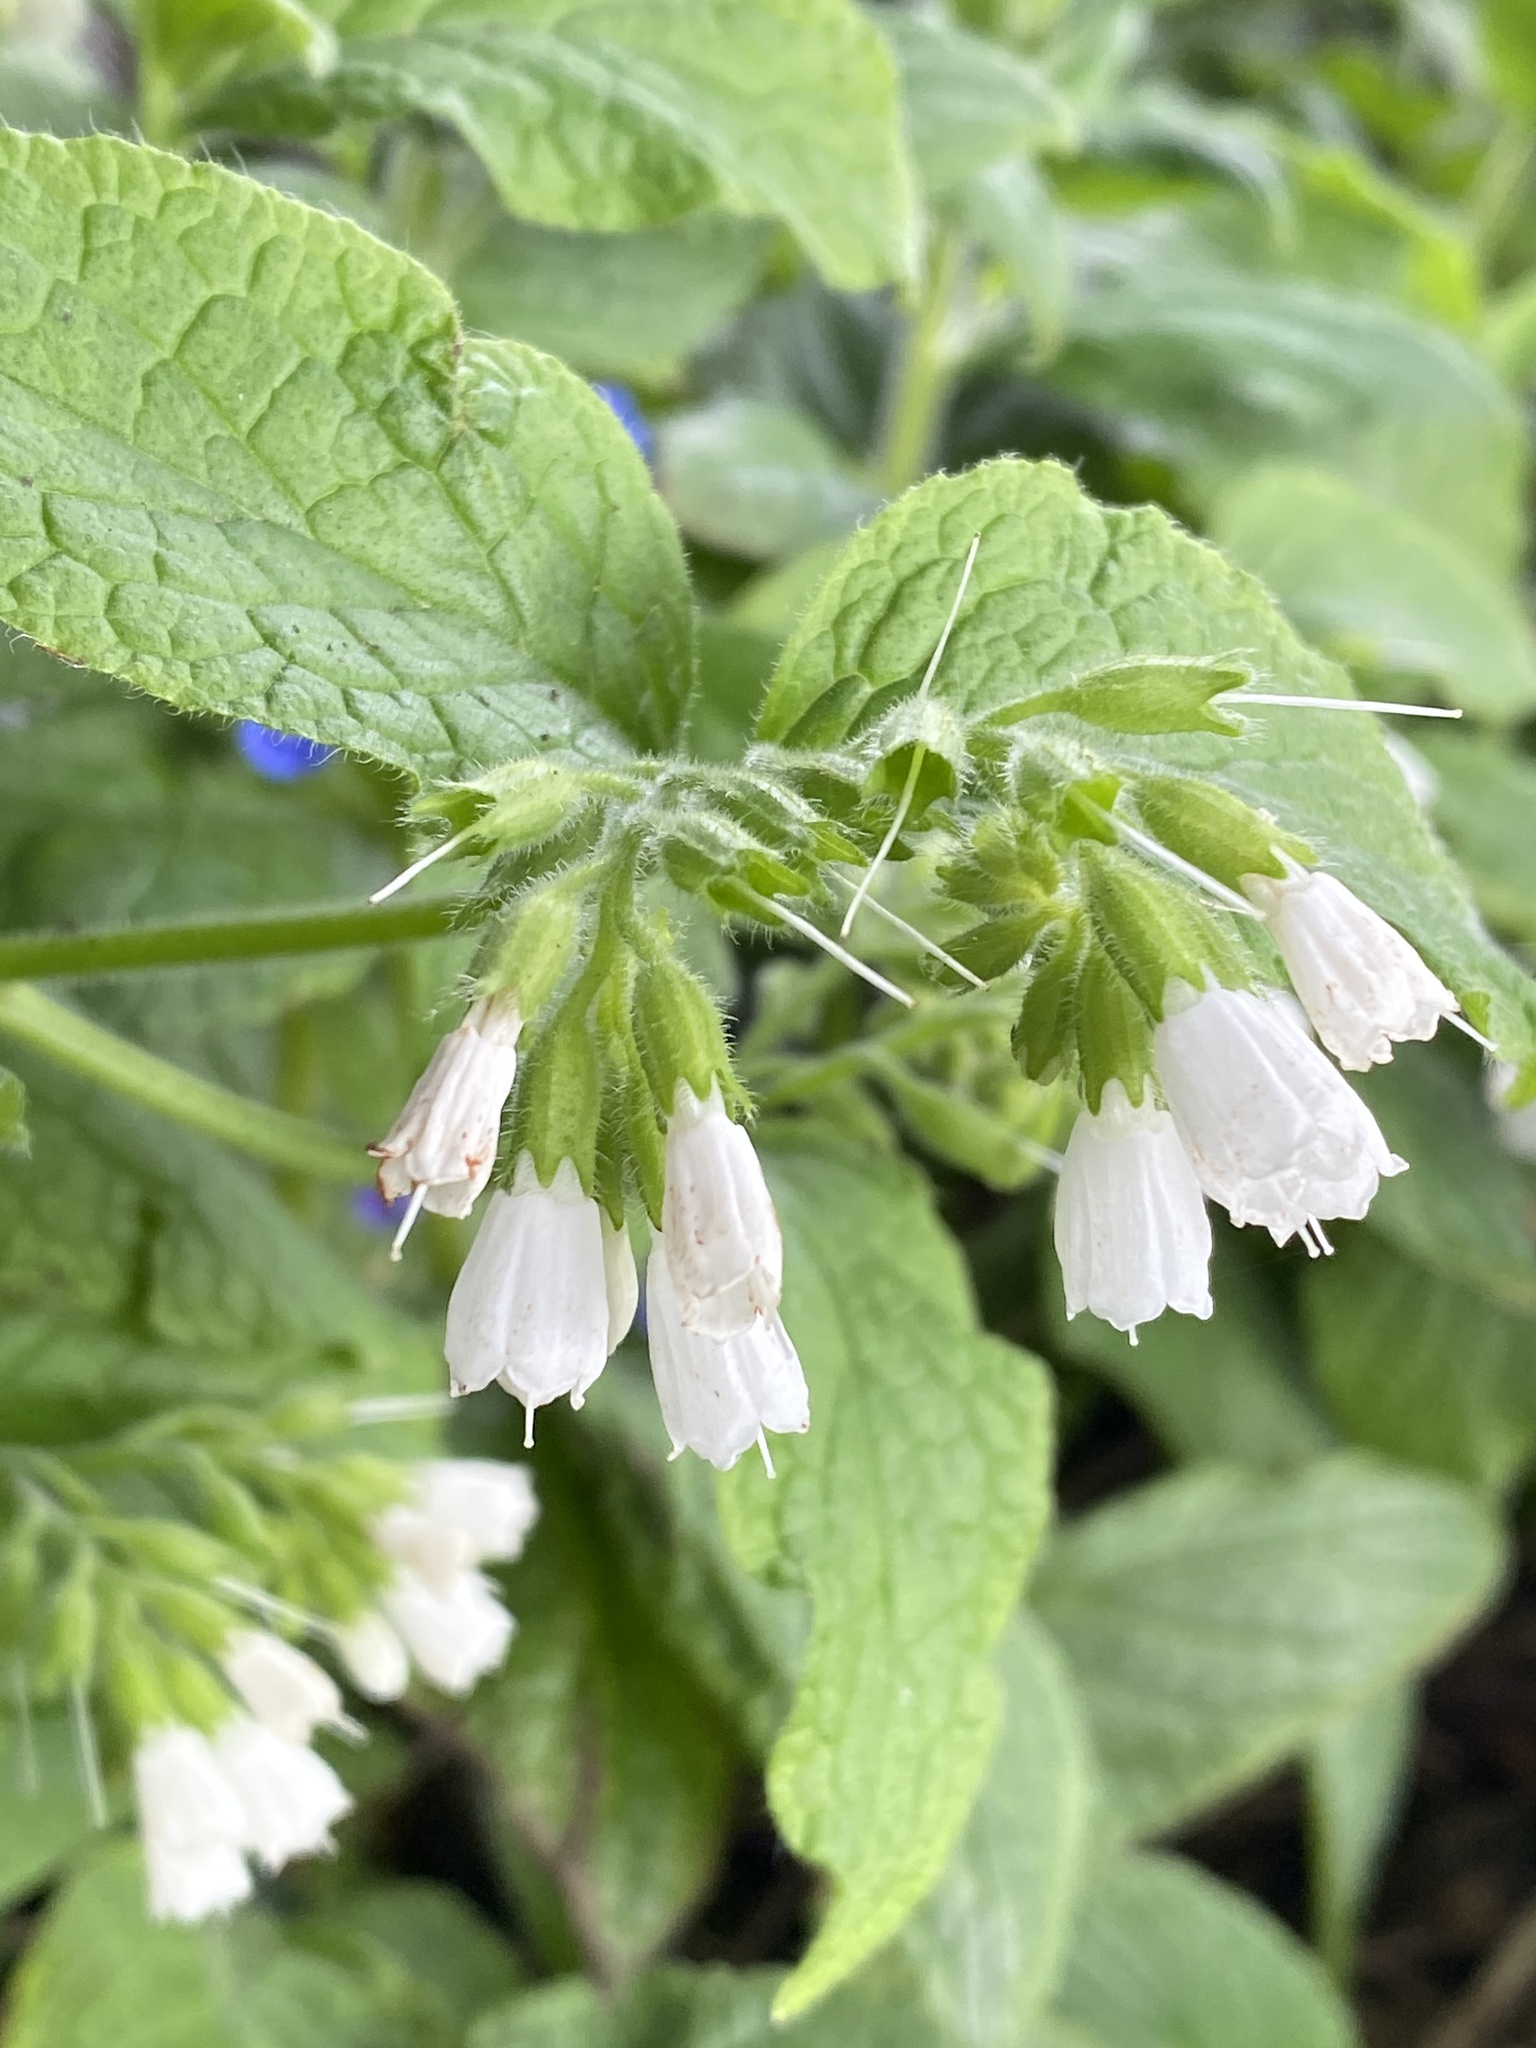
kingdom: Plantae
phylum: Tracheophyta
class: Magnoliopsida
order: Boraginales
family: Boraginaceae
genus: Symphytum
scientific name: Symphytum orientale
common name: White comfrey
